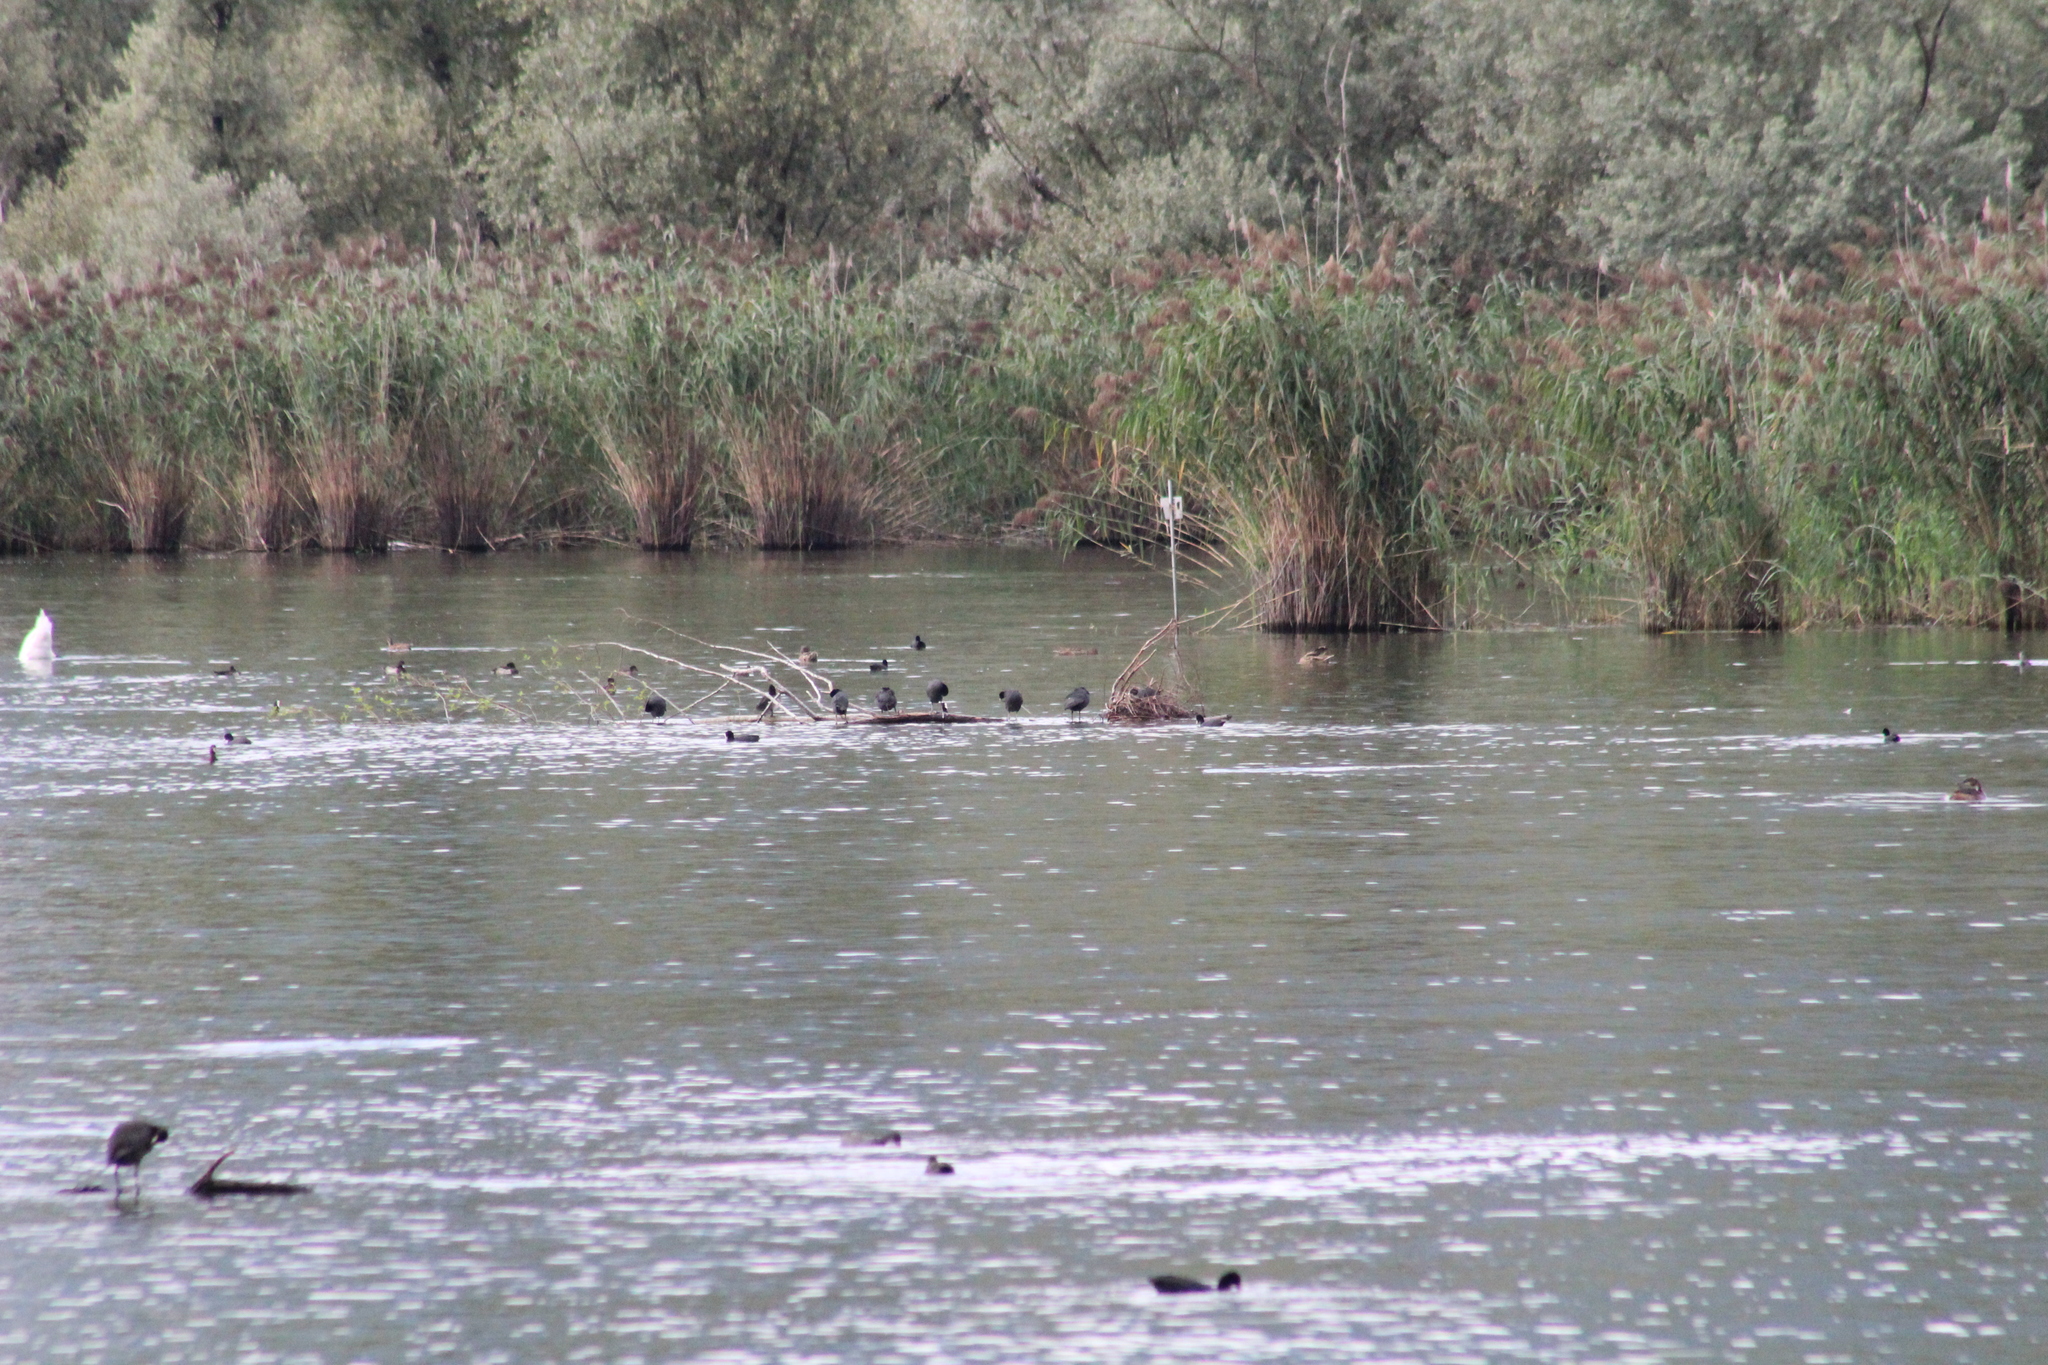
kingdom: Animalia
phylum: Chordata
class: Aves
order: Gruiformes
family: Rallidae
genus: Fulica
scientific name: Fulica atra
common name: Eurasian coot
